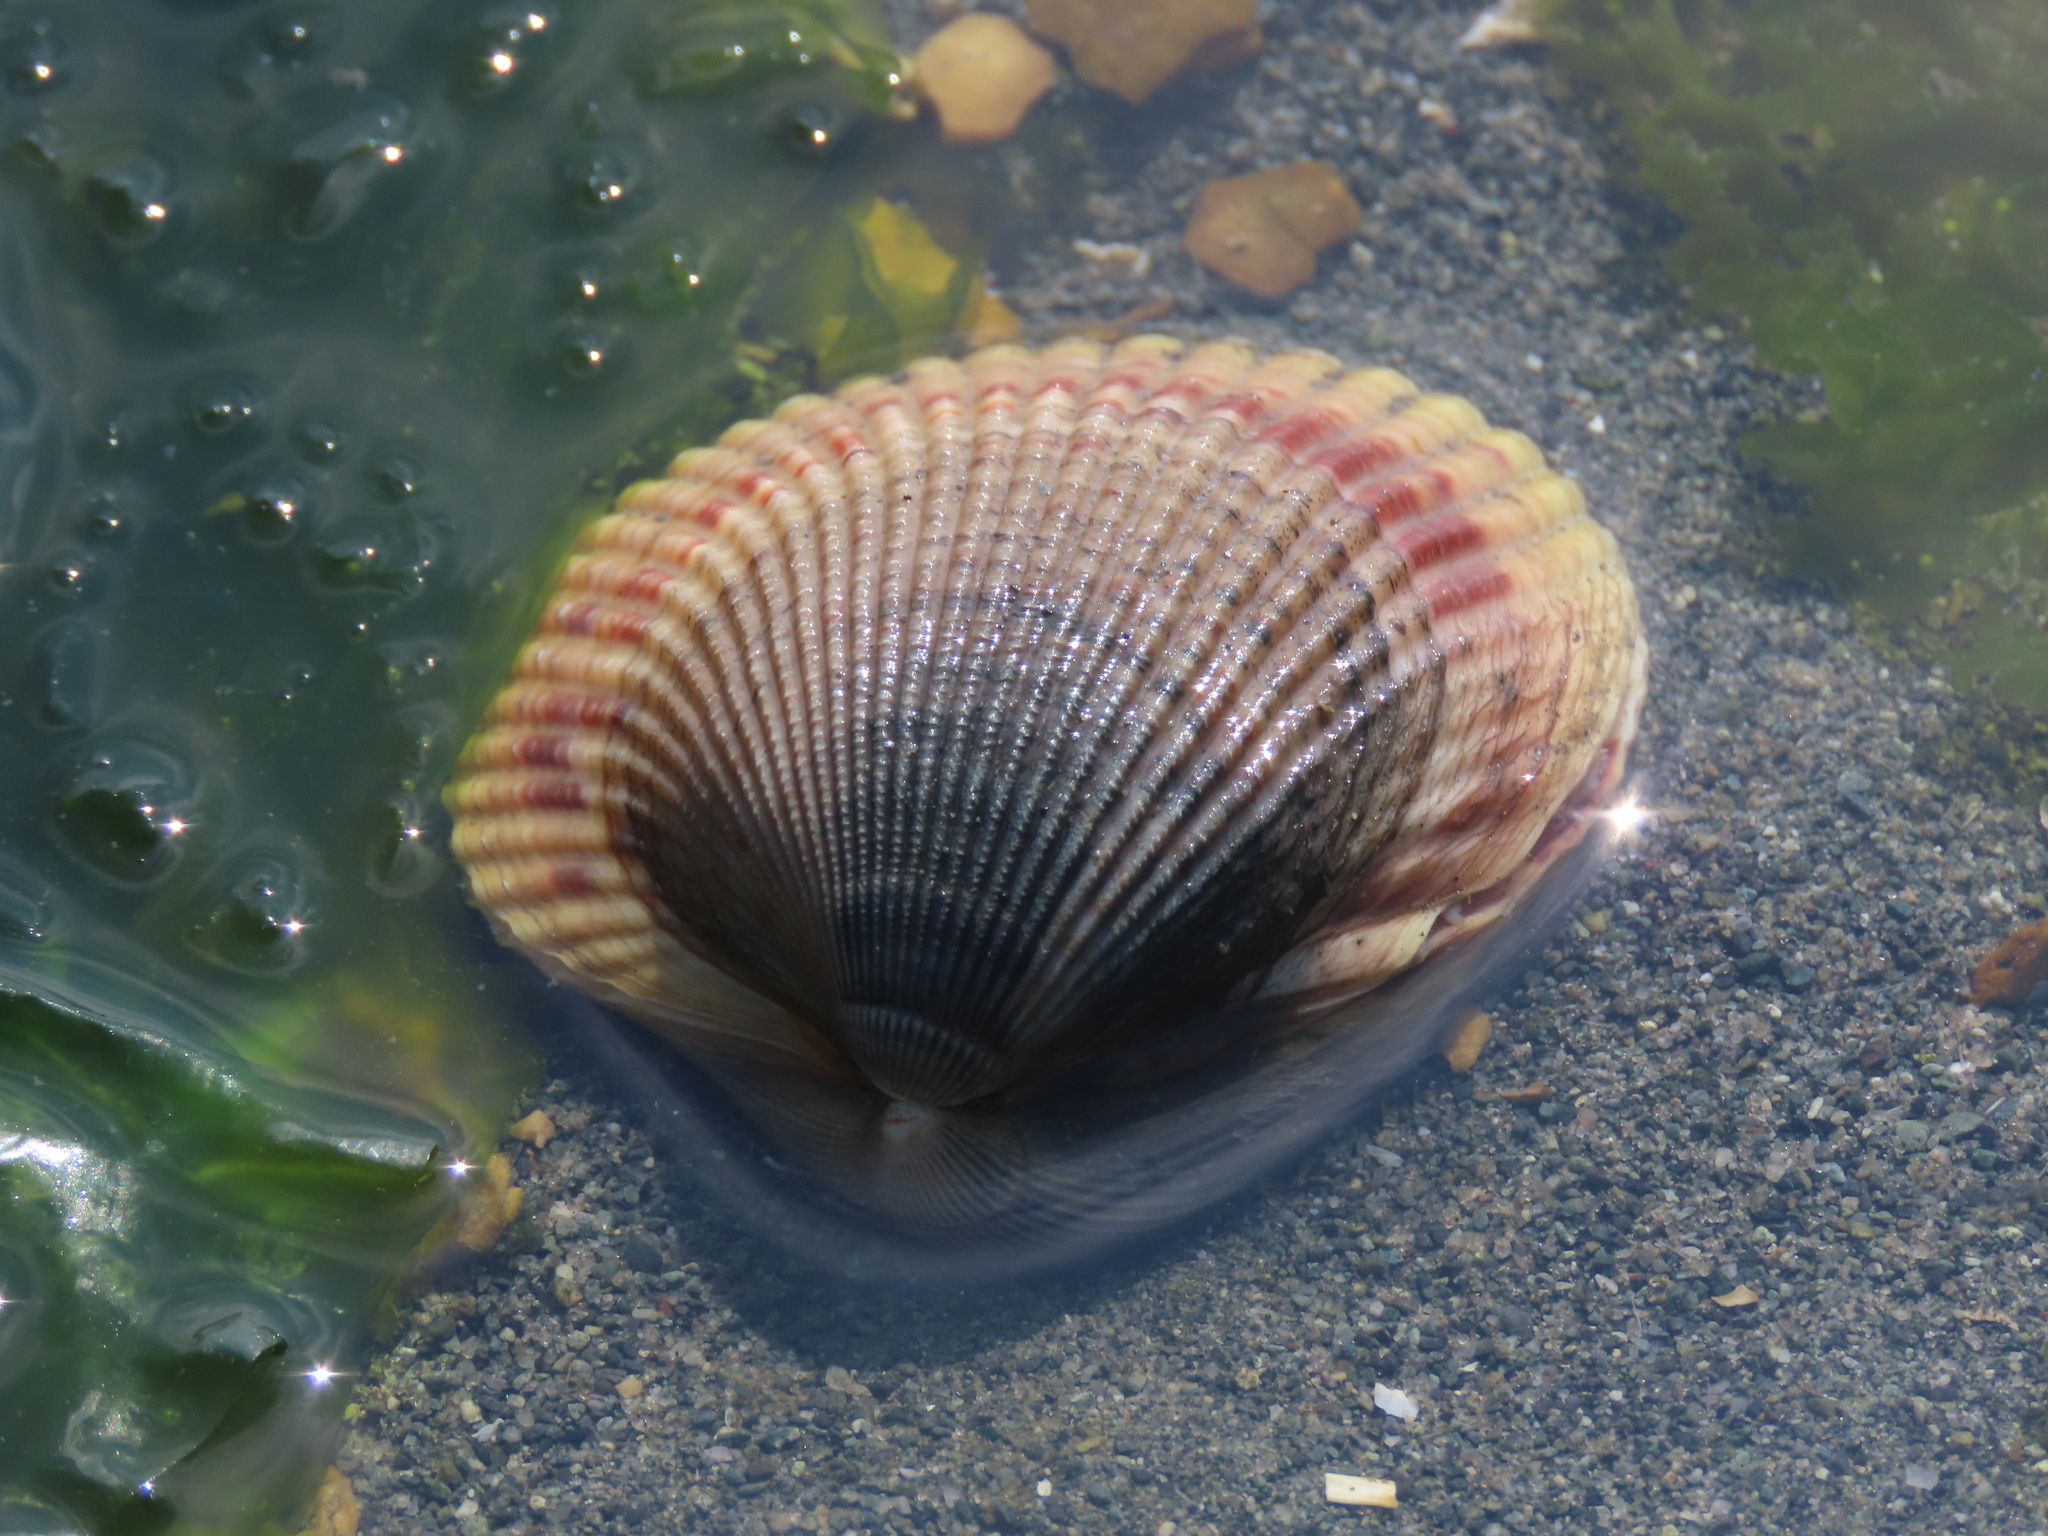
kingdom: Animalia
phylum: Mollusca
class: Bivalvia
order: Cardiida
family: Cardiidae
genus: Clinocardium
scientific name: Clinocardium nuttallii
